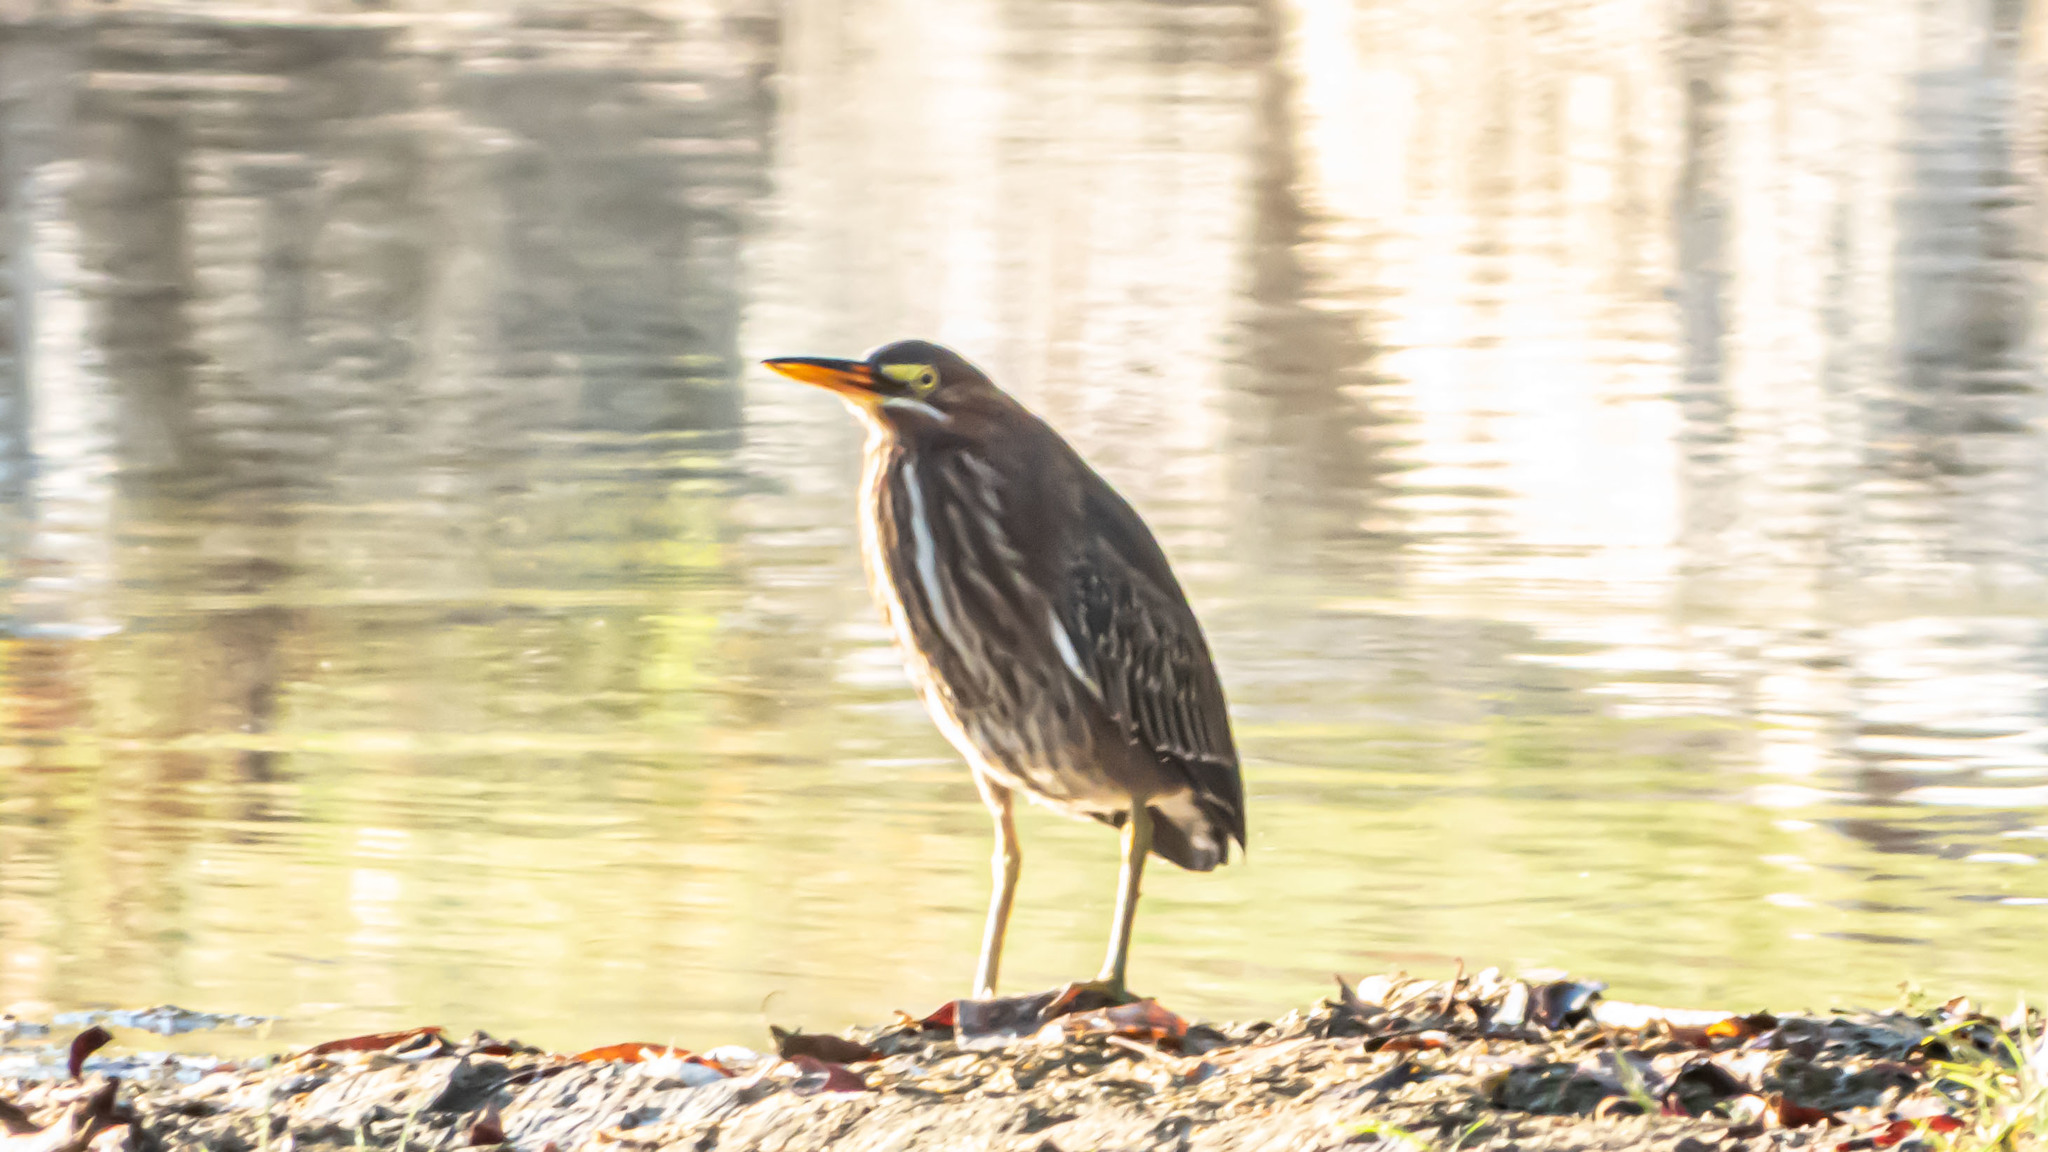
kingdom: Animalia
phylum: Chordata
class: Aves
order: Pelecaniformes
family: Ardeidae
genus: Butorides
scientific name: Butorides virescens
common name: Green heron
